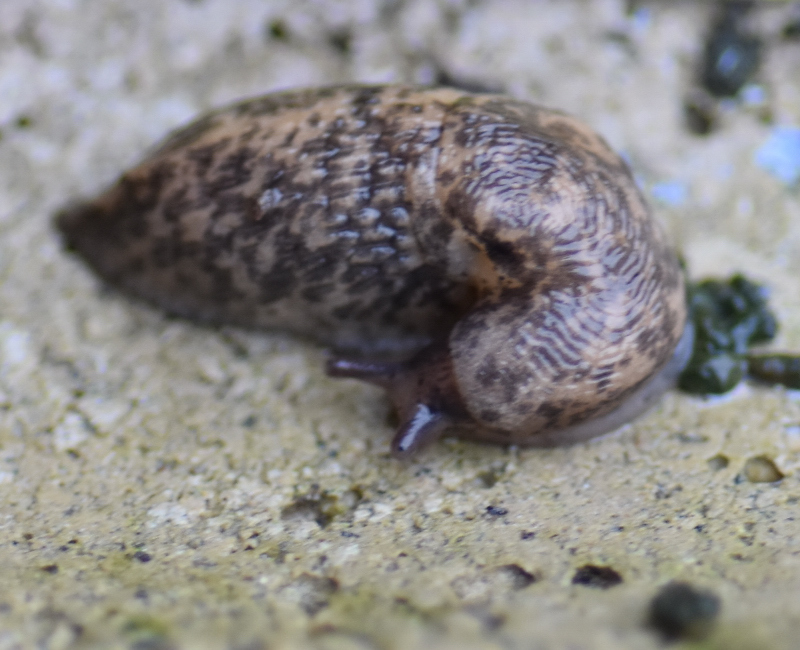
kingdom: Animalia
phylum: Mollusca
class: Gastropoda
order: Stylommatophora
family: Agriolimacidae
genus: Deroceras
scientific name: Deroceras reticulatum
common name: Gray field slug
